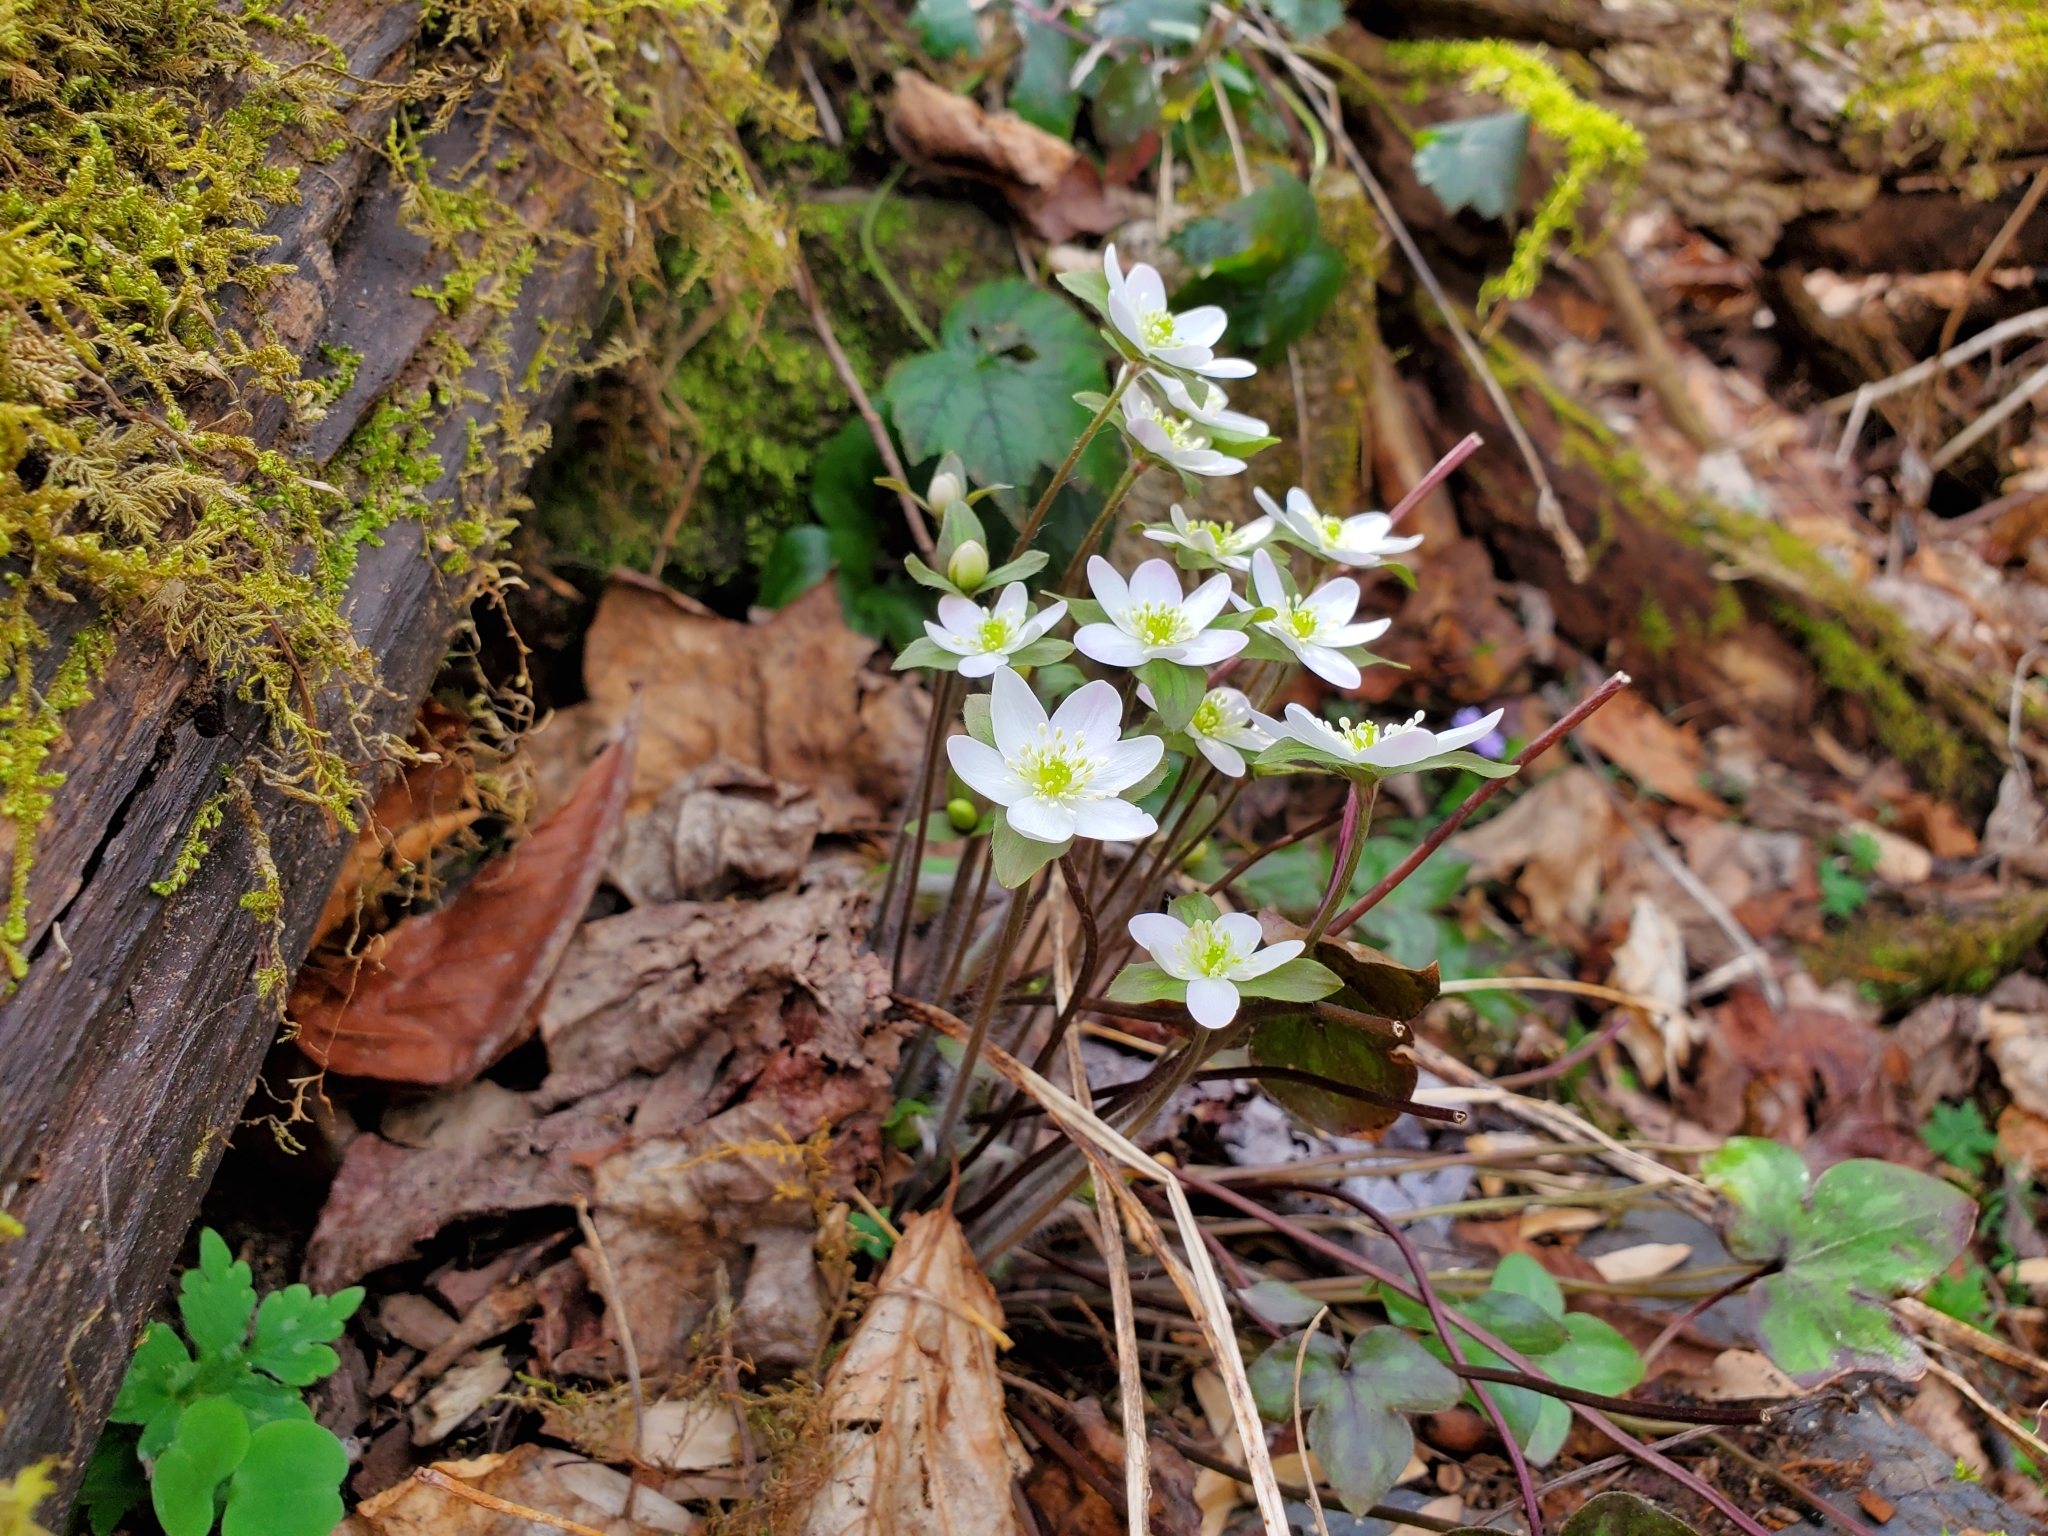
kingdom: Plantae
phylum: Tracheophyta
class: Magnoliopsida
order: Ranunculales
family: Ranunculaceae
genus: Hepatica
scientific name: Hepatica acutiloba
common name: Sharp-lobed hepatica
